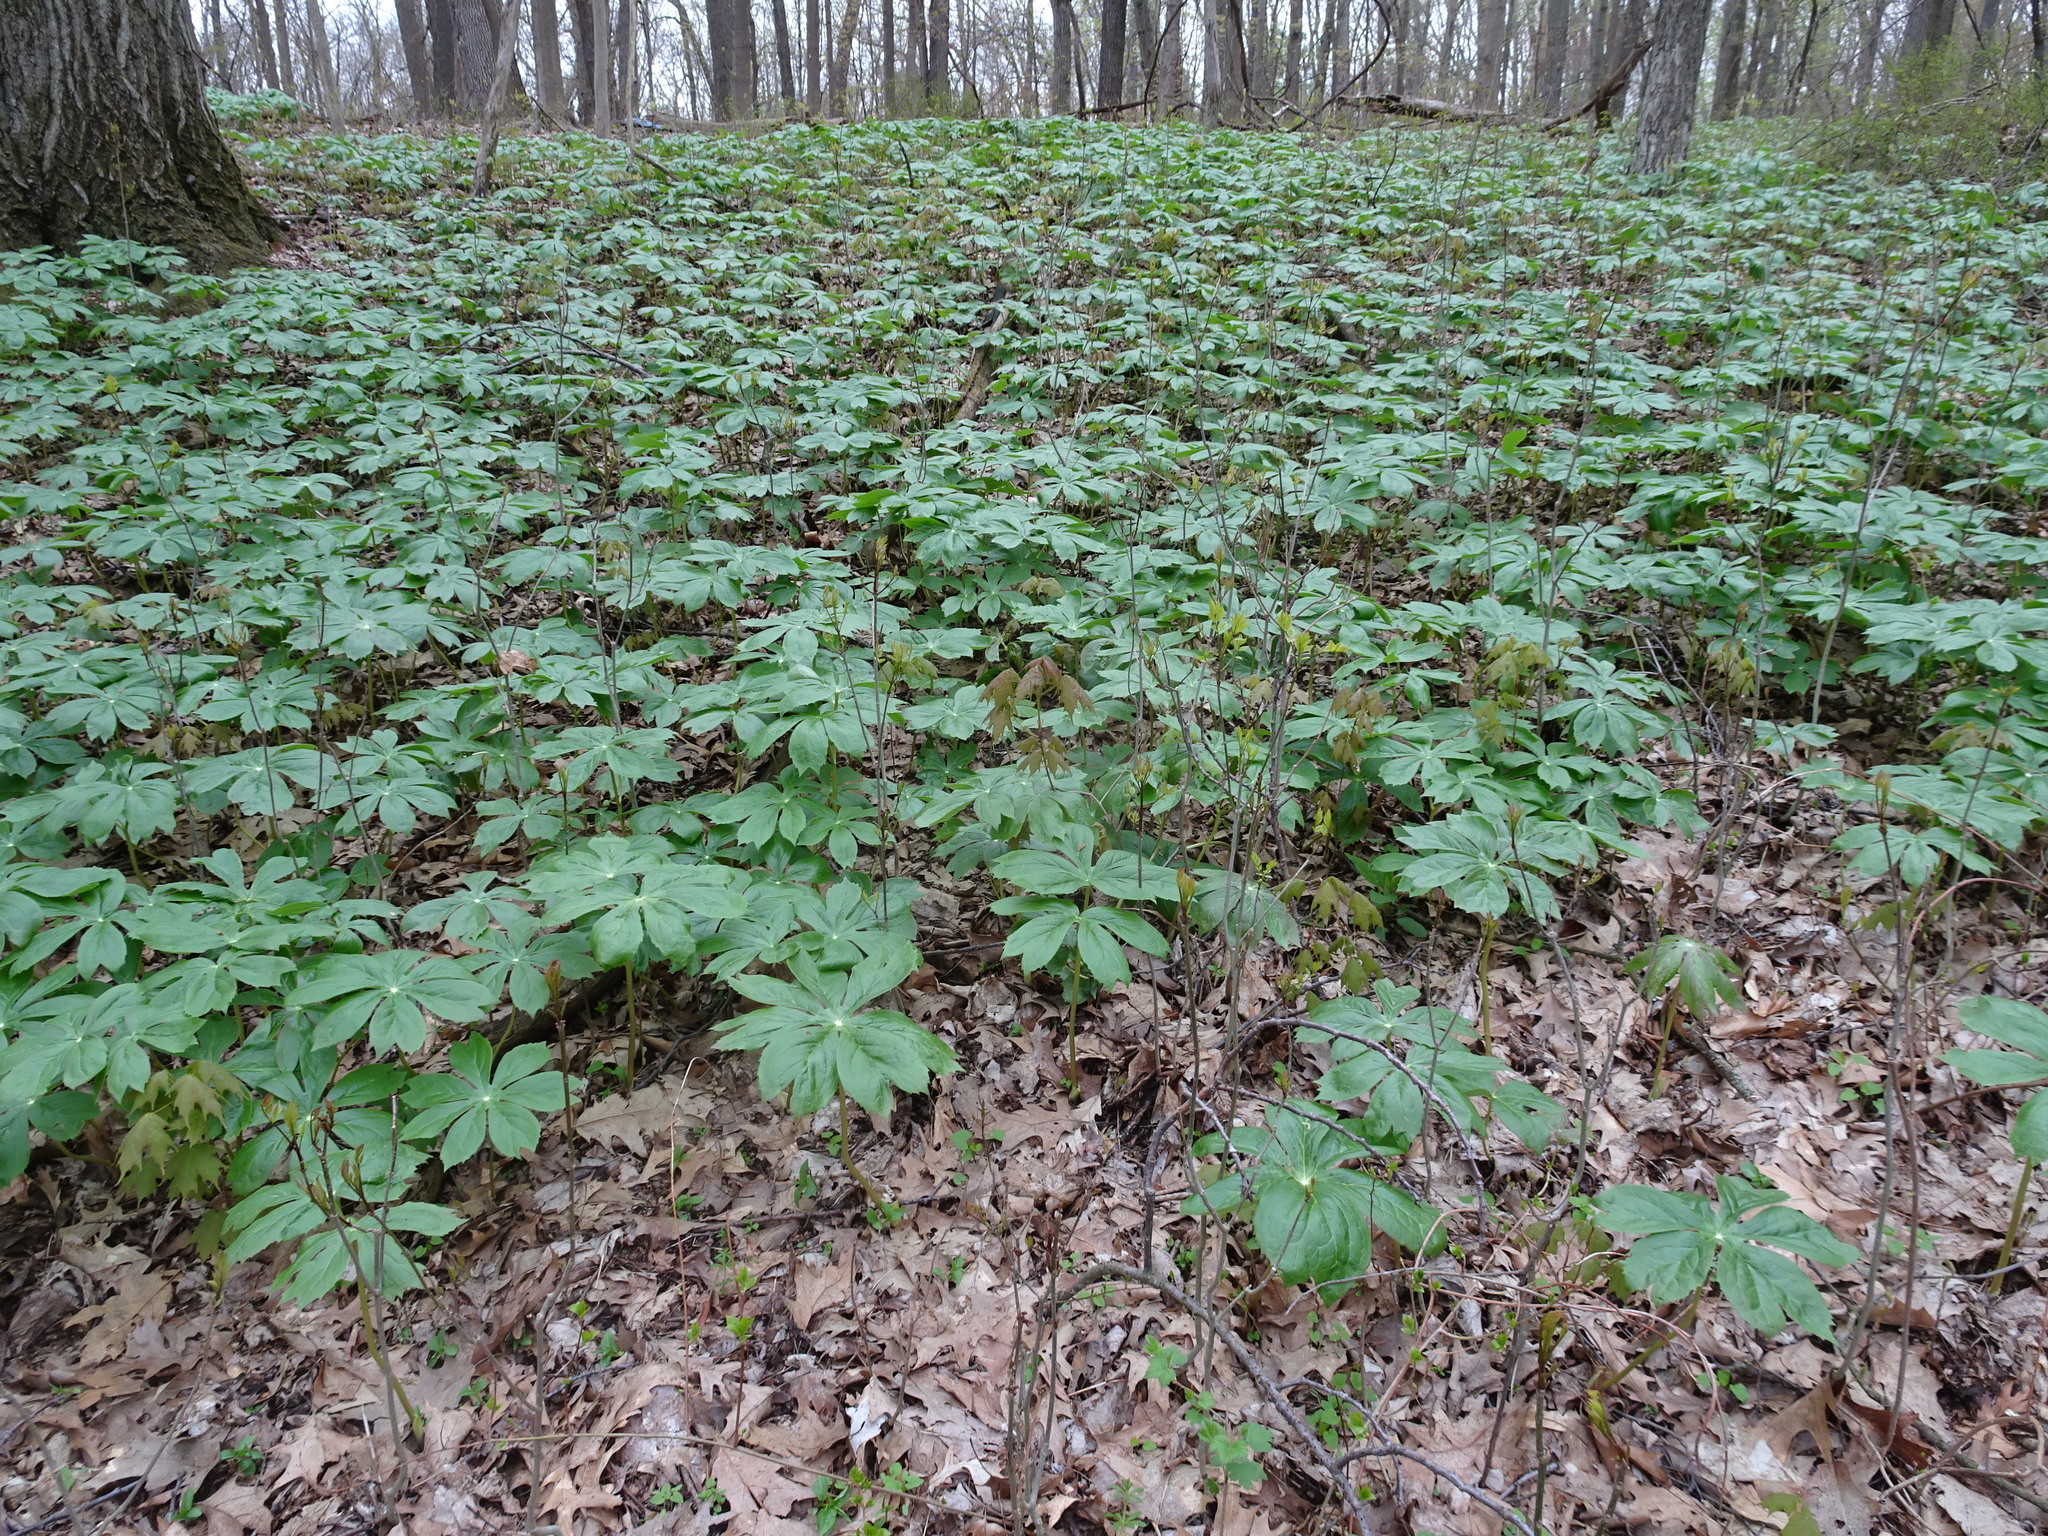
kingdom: Plantae
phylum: Tracheophyta
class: Magnoliopsida
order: Ranunculales
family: Berberidaceae
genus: Podophyllum
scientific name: Podophyllum peltatum
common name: Wild mandrake
